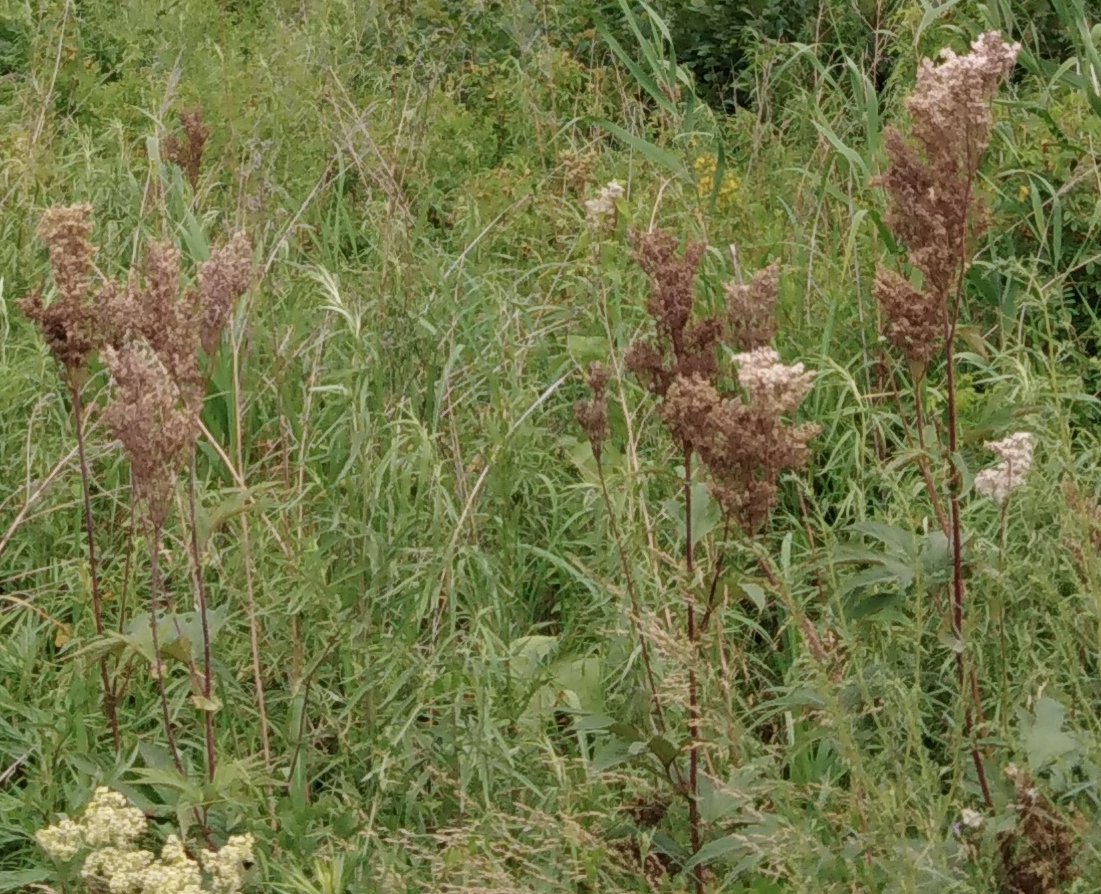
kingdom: Plantae
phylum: Tracheophyta
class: Magnoliopsida
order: Rosales
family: Rosaceae
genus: Filipendula
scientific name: Filipendula digitata
